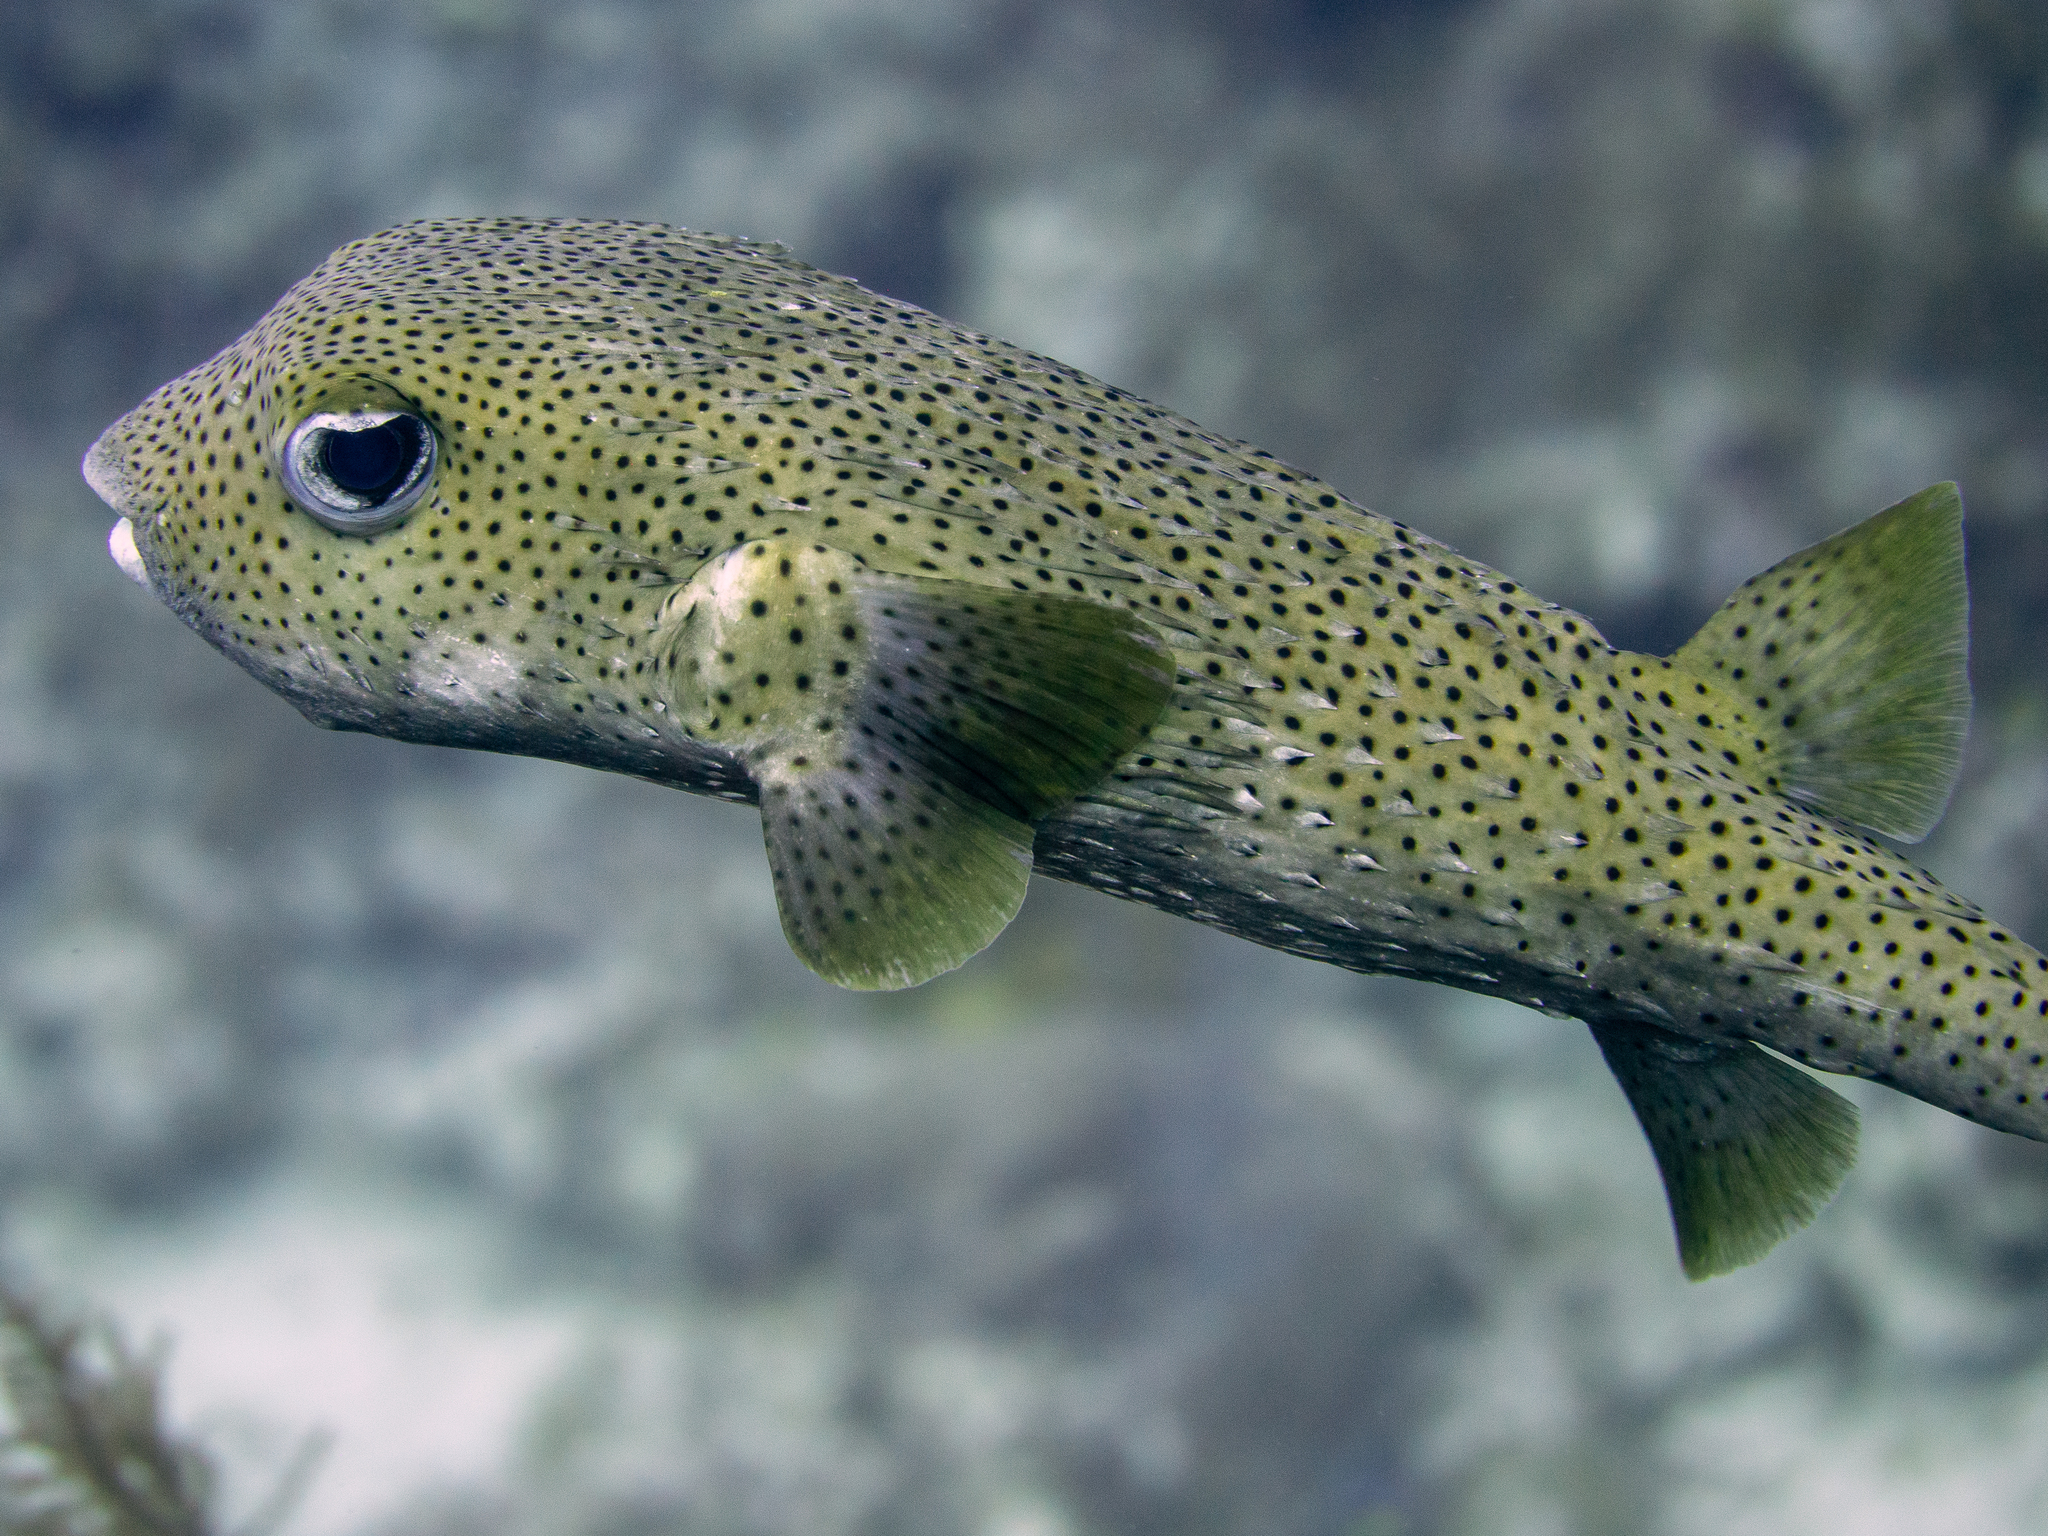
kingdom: Animalia
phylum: Chordata
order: Tetraodontiformes
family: Diodontidae
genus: Diodon
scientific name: Diodon hystrix
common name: Giant porcupinefish
